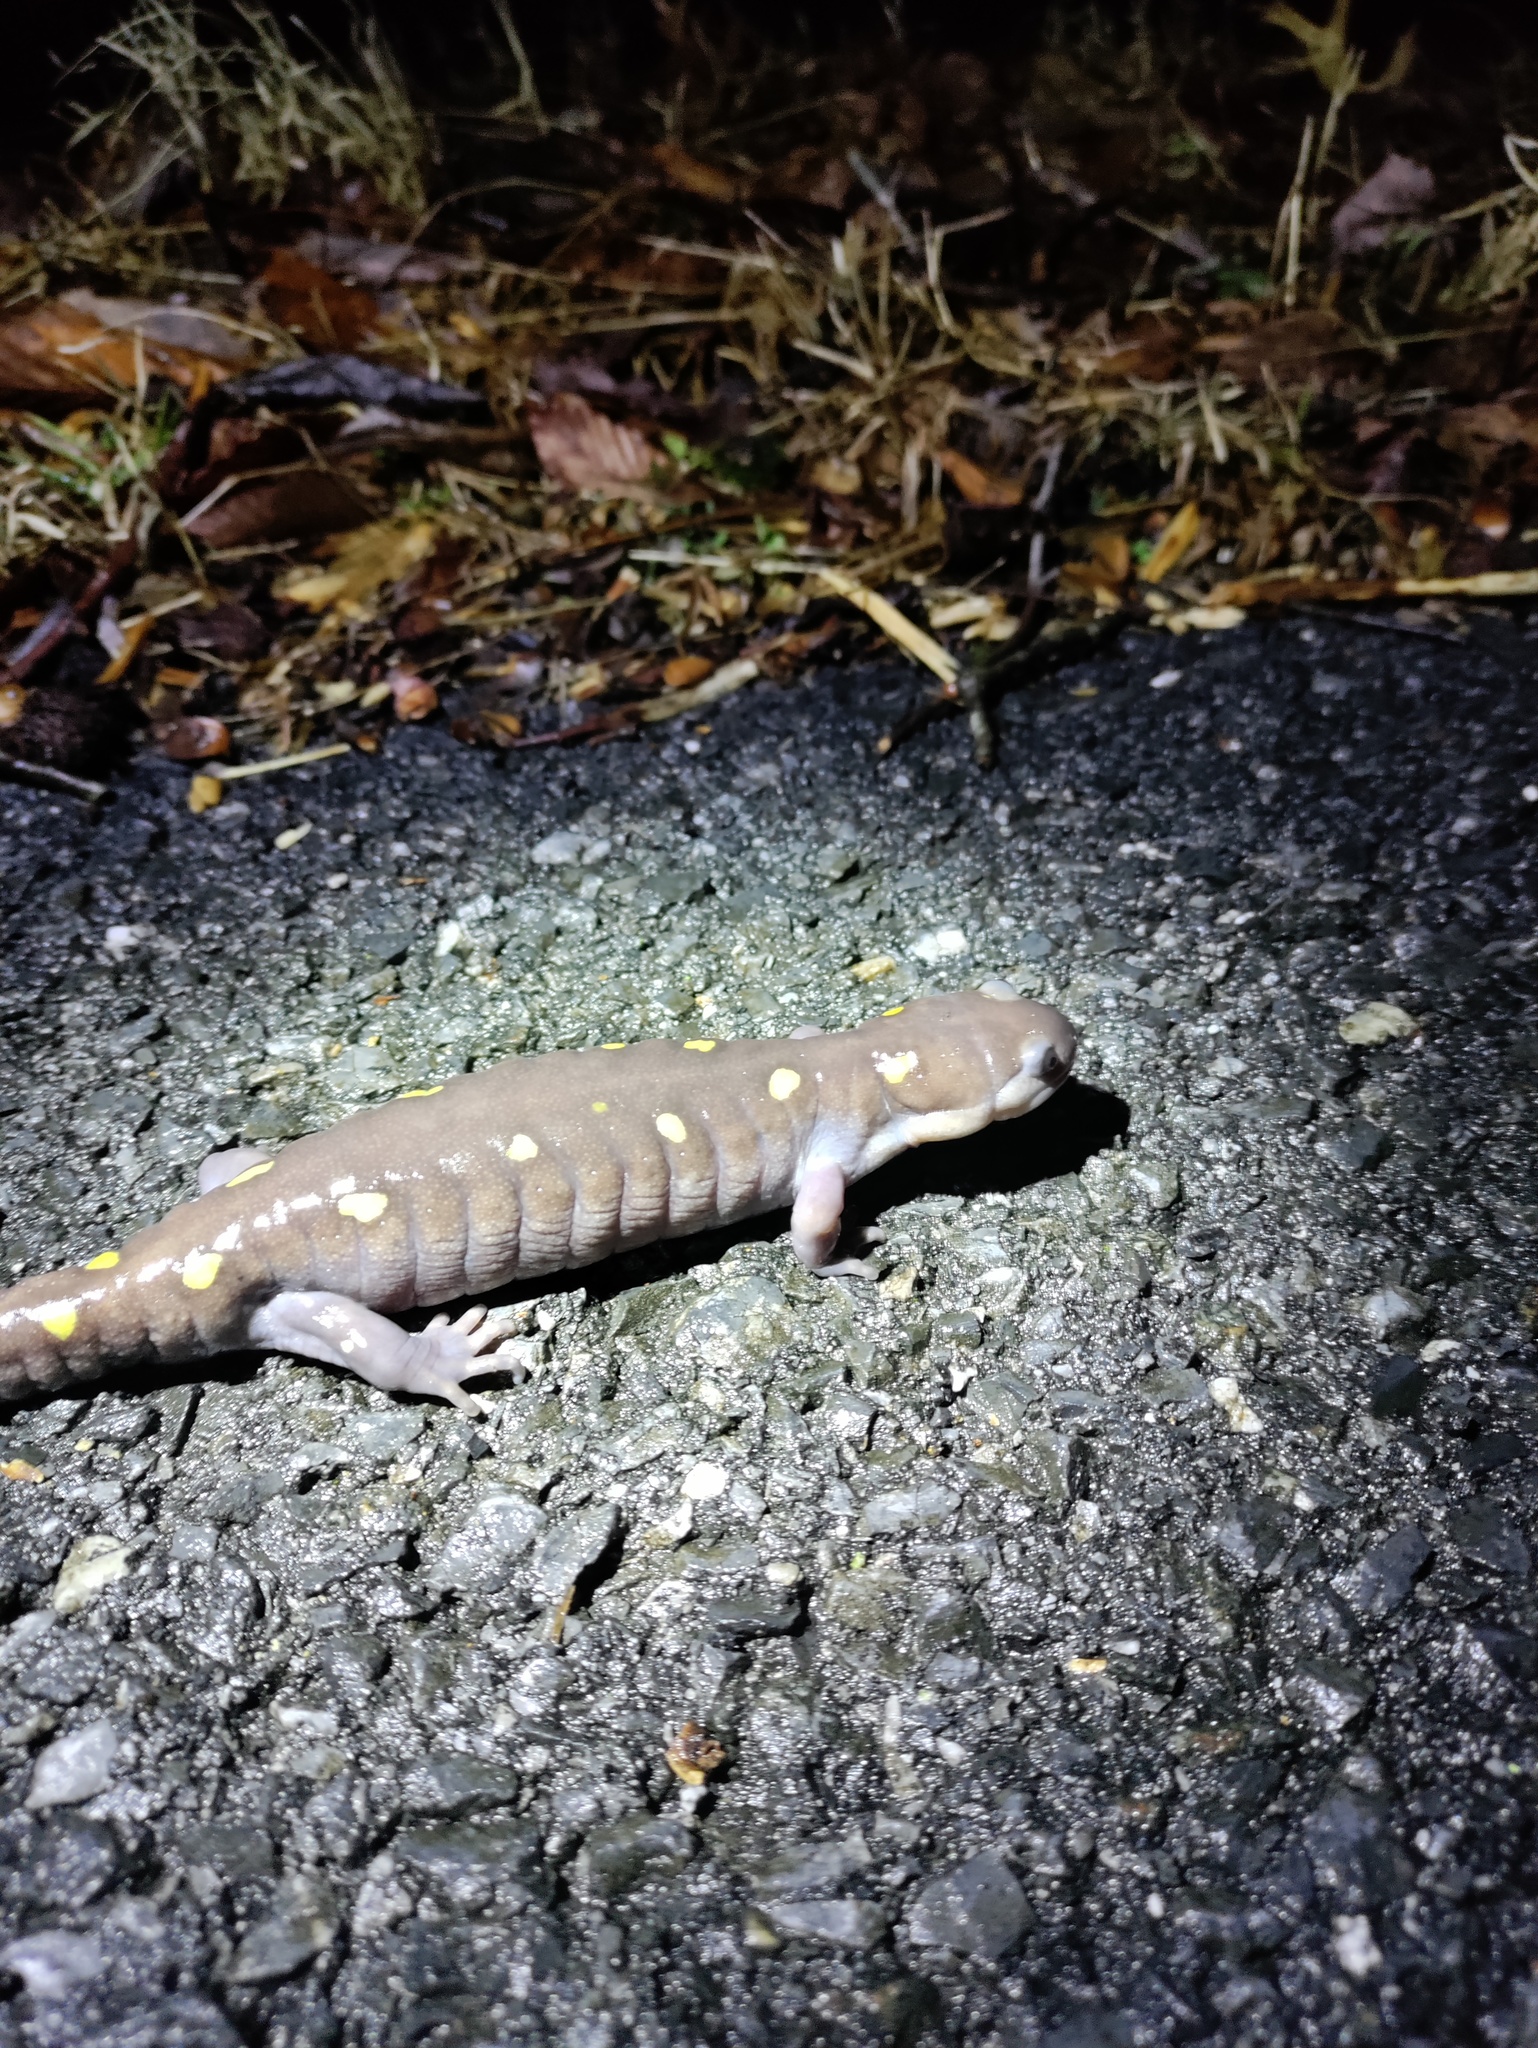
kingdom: Animalia
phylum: Chordata
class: Amphibia
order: Caudata
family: Ambystomatidae
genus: Ambystoma
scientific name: Ambystoma maculatum
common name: Spotted salamander
